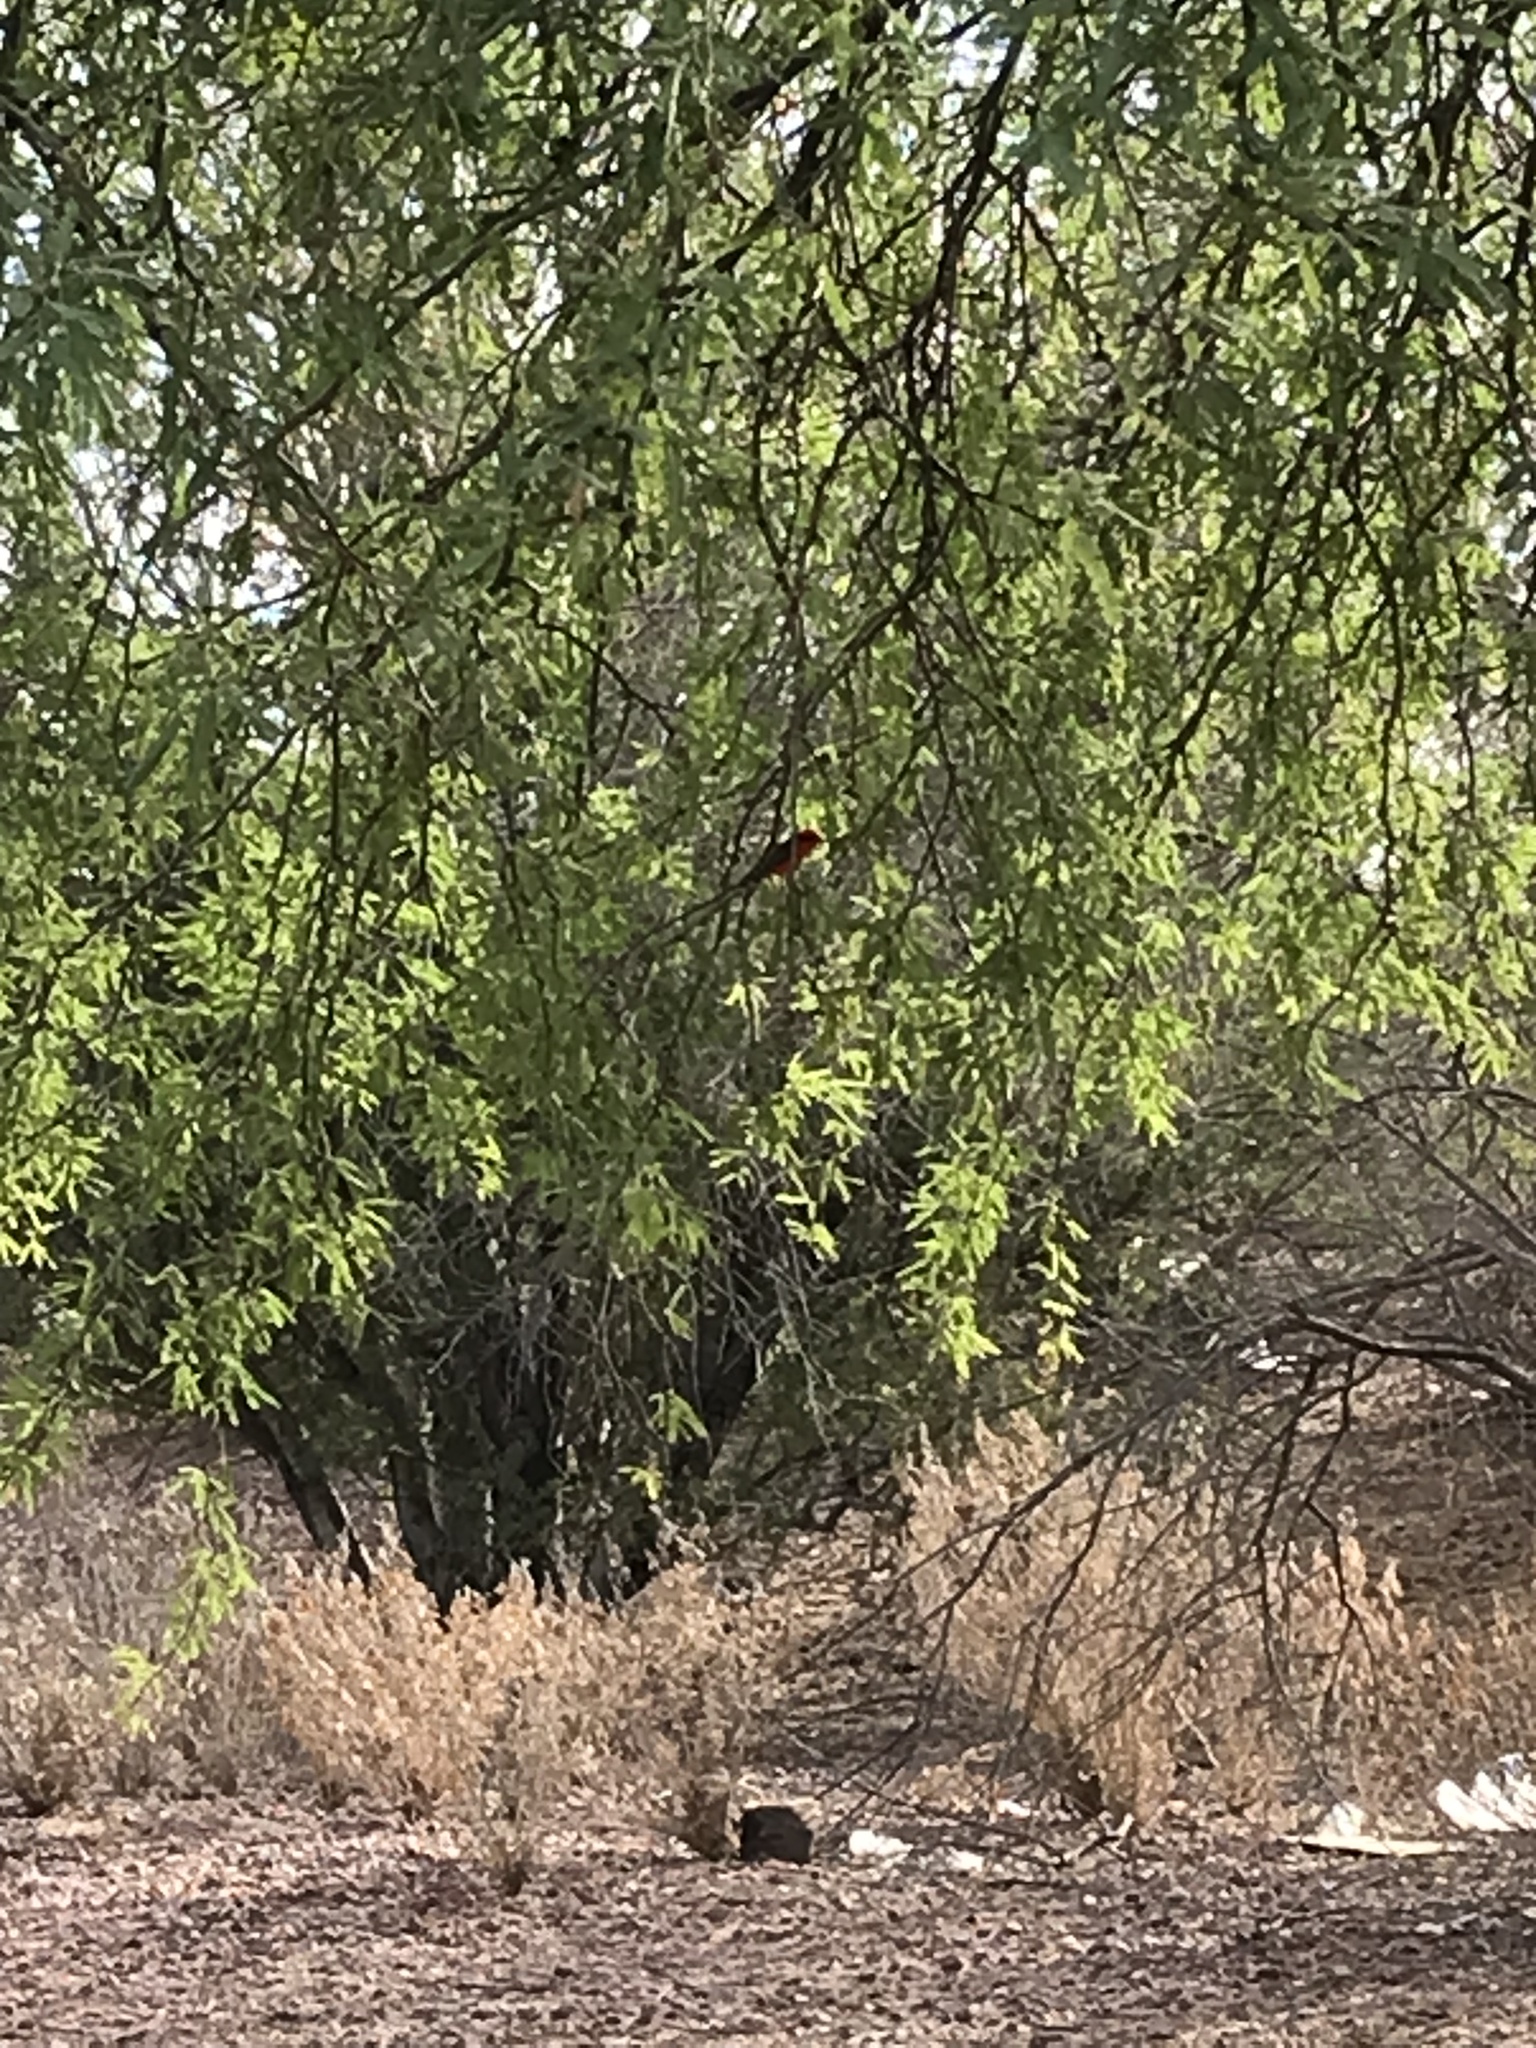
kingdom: Animalia
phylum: Chordata
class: Aves
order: Passeriformes
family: Tyrannidae
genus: Pyrocephalus
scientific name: Pyrocephalus rubinus
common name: Vermilion flycatcher
